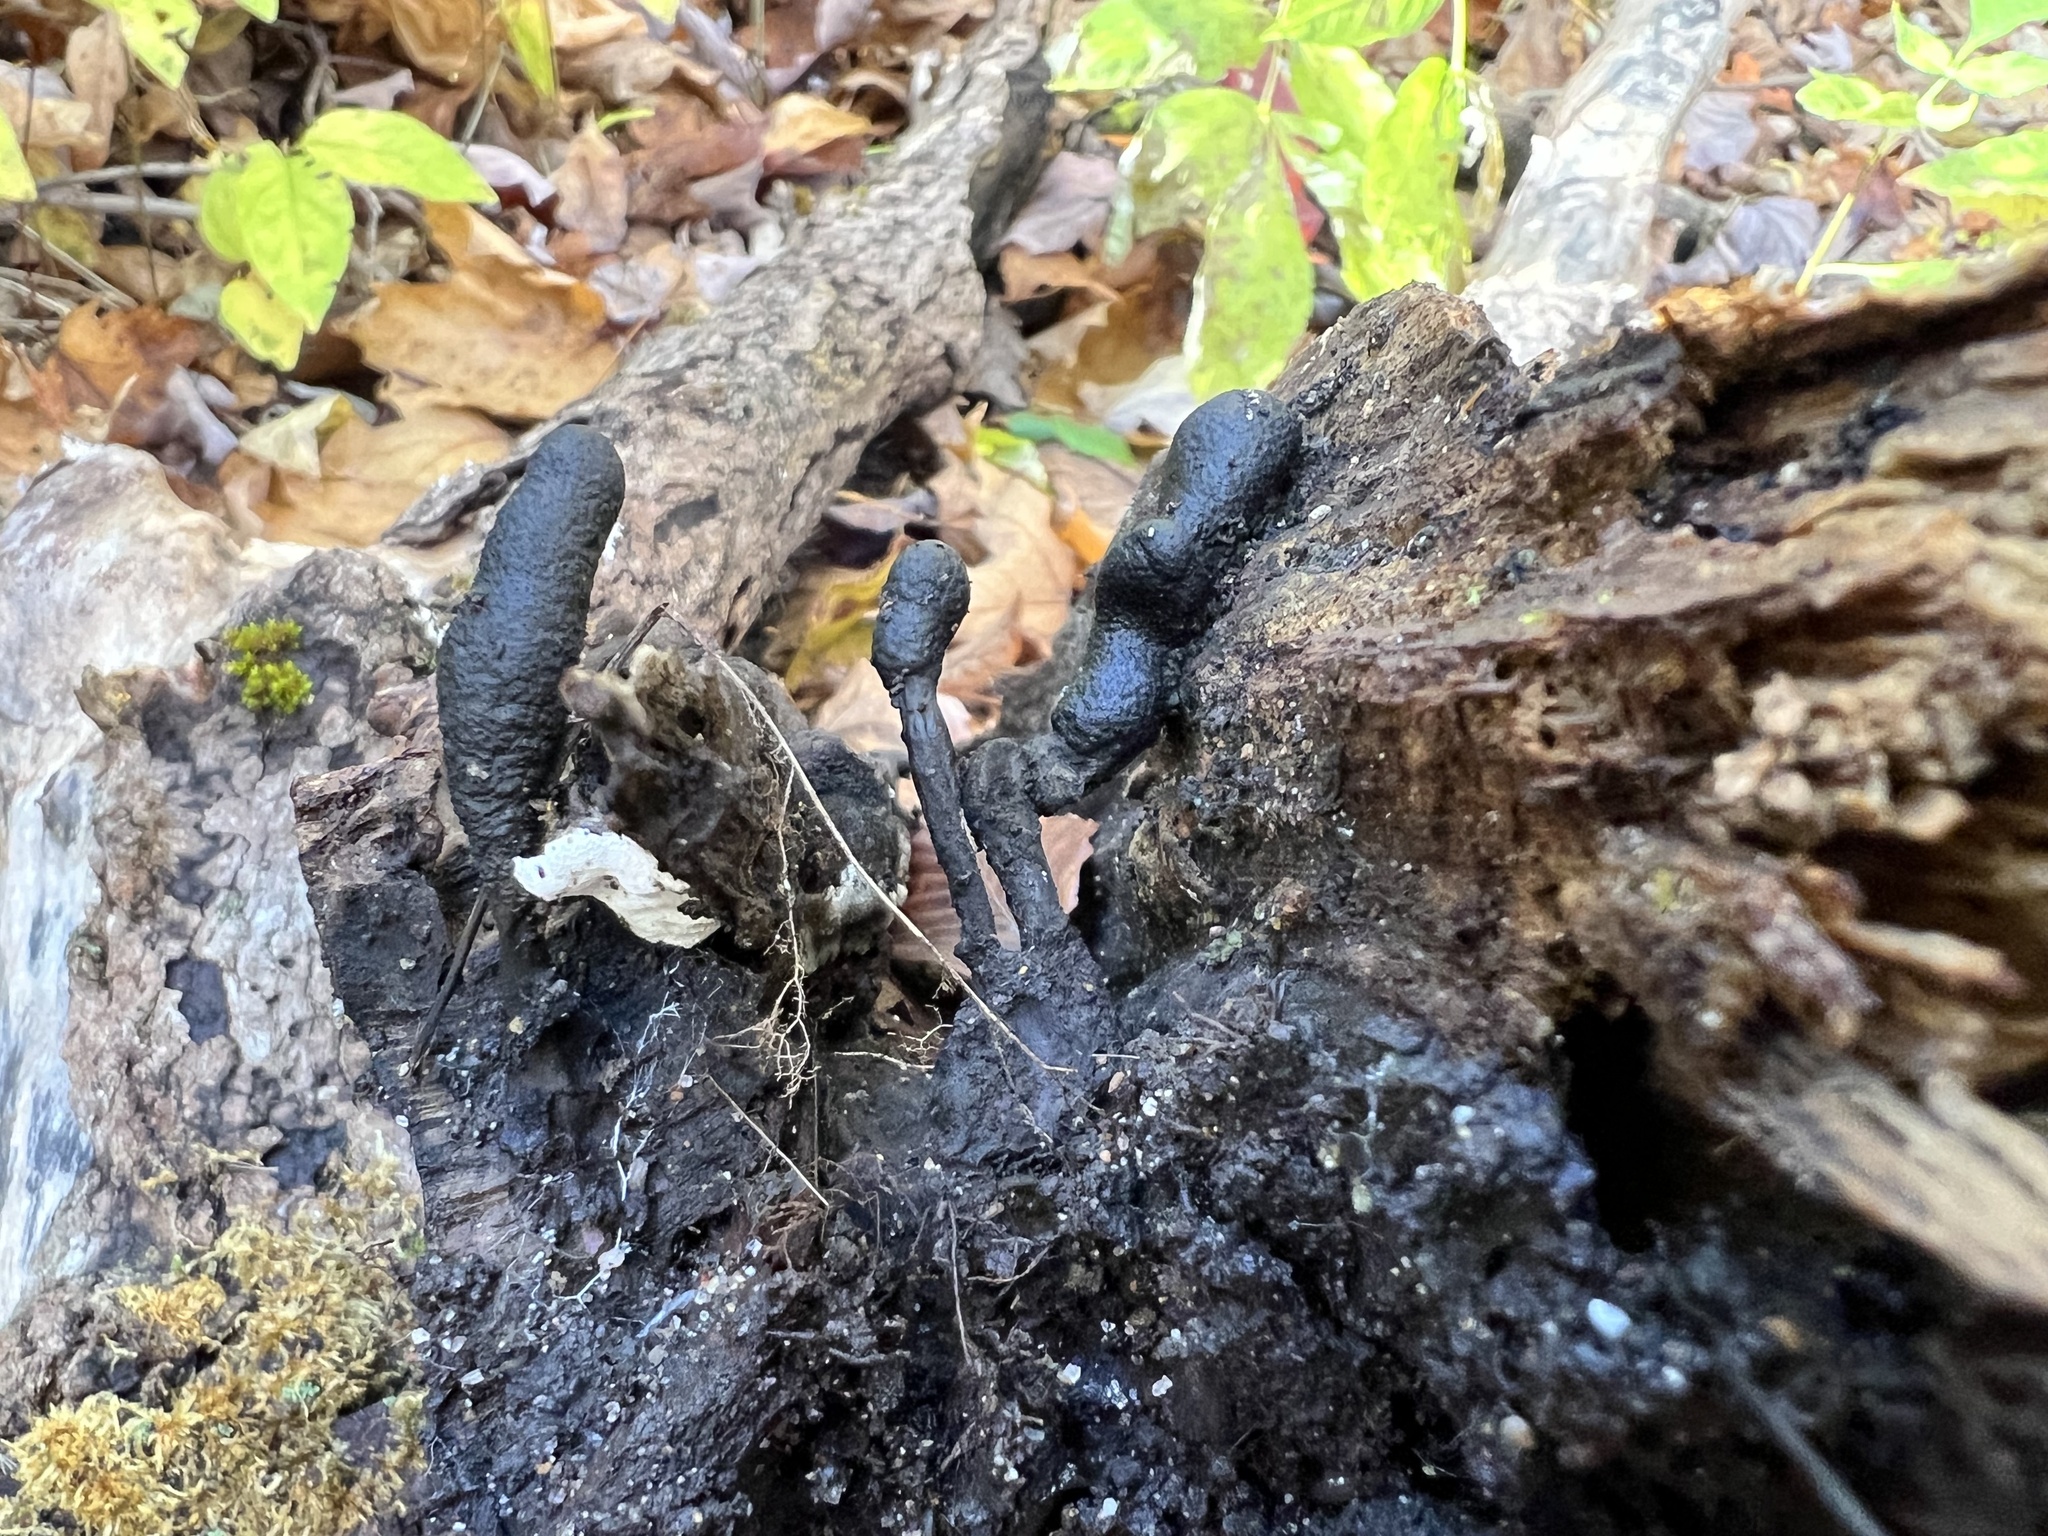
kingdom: Fungi
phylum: Ascomycota
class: Sordariomycetes
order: Xylariales
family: Xylariaceae
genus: Xylaria
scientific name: Xylaria polymorpha
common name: Dead man's fingers
